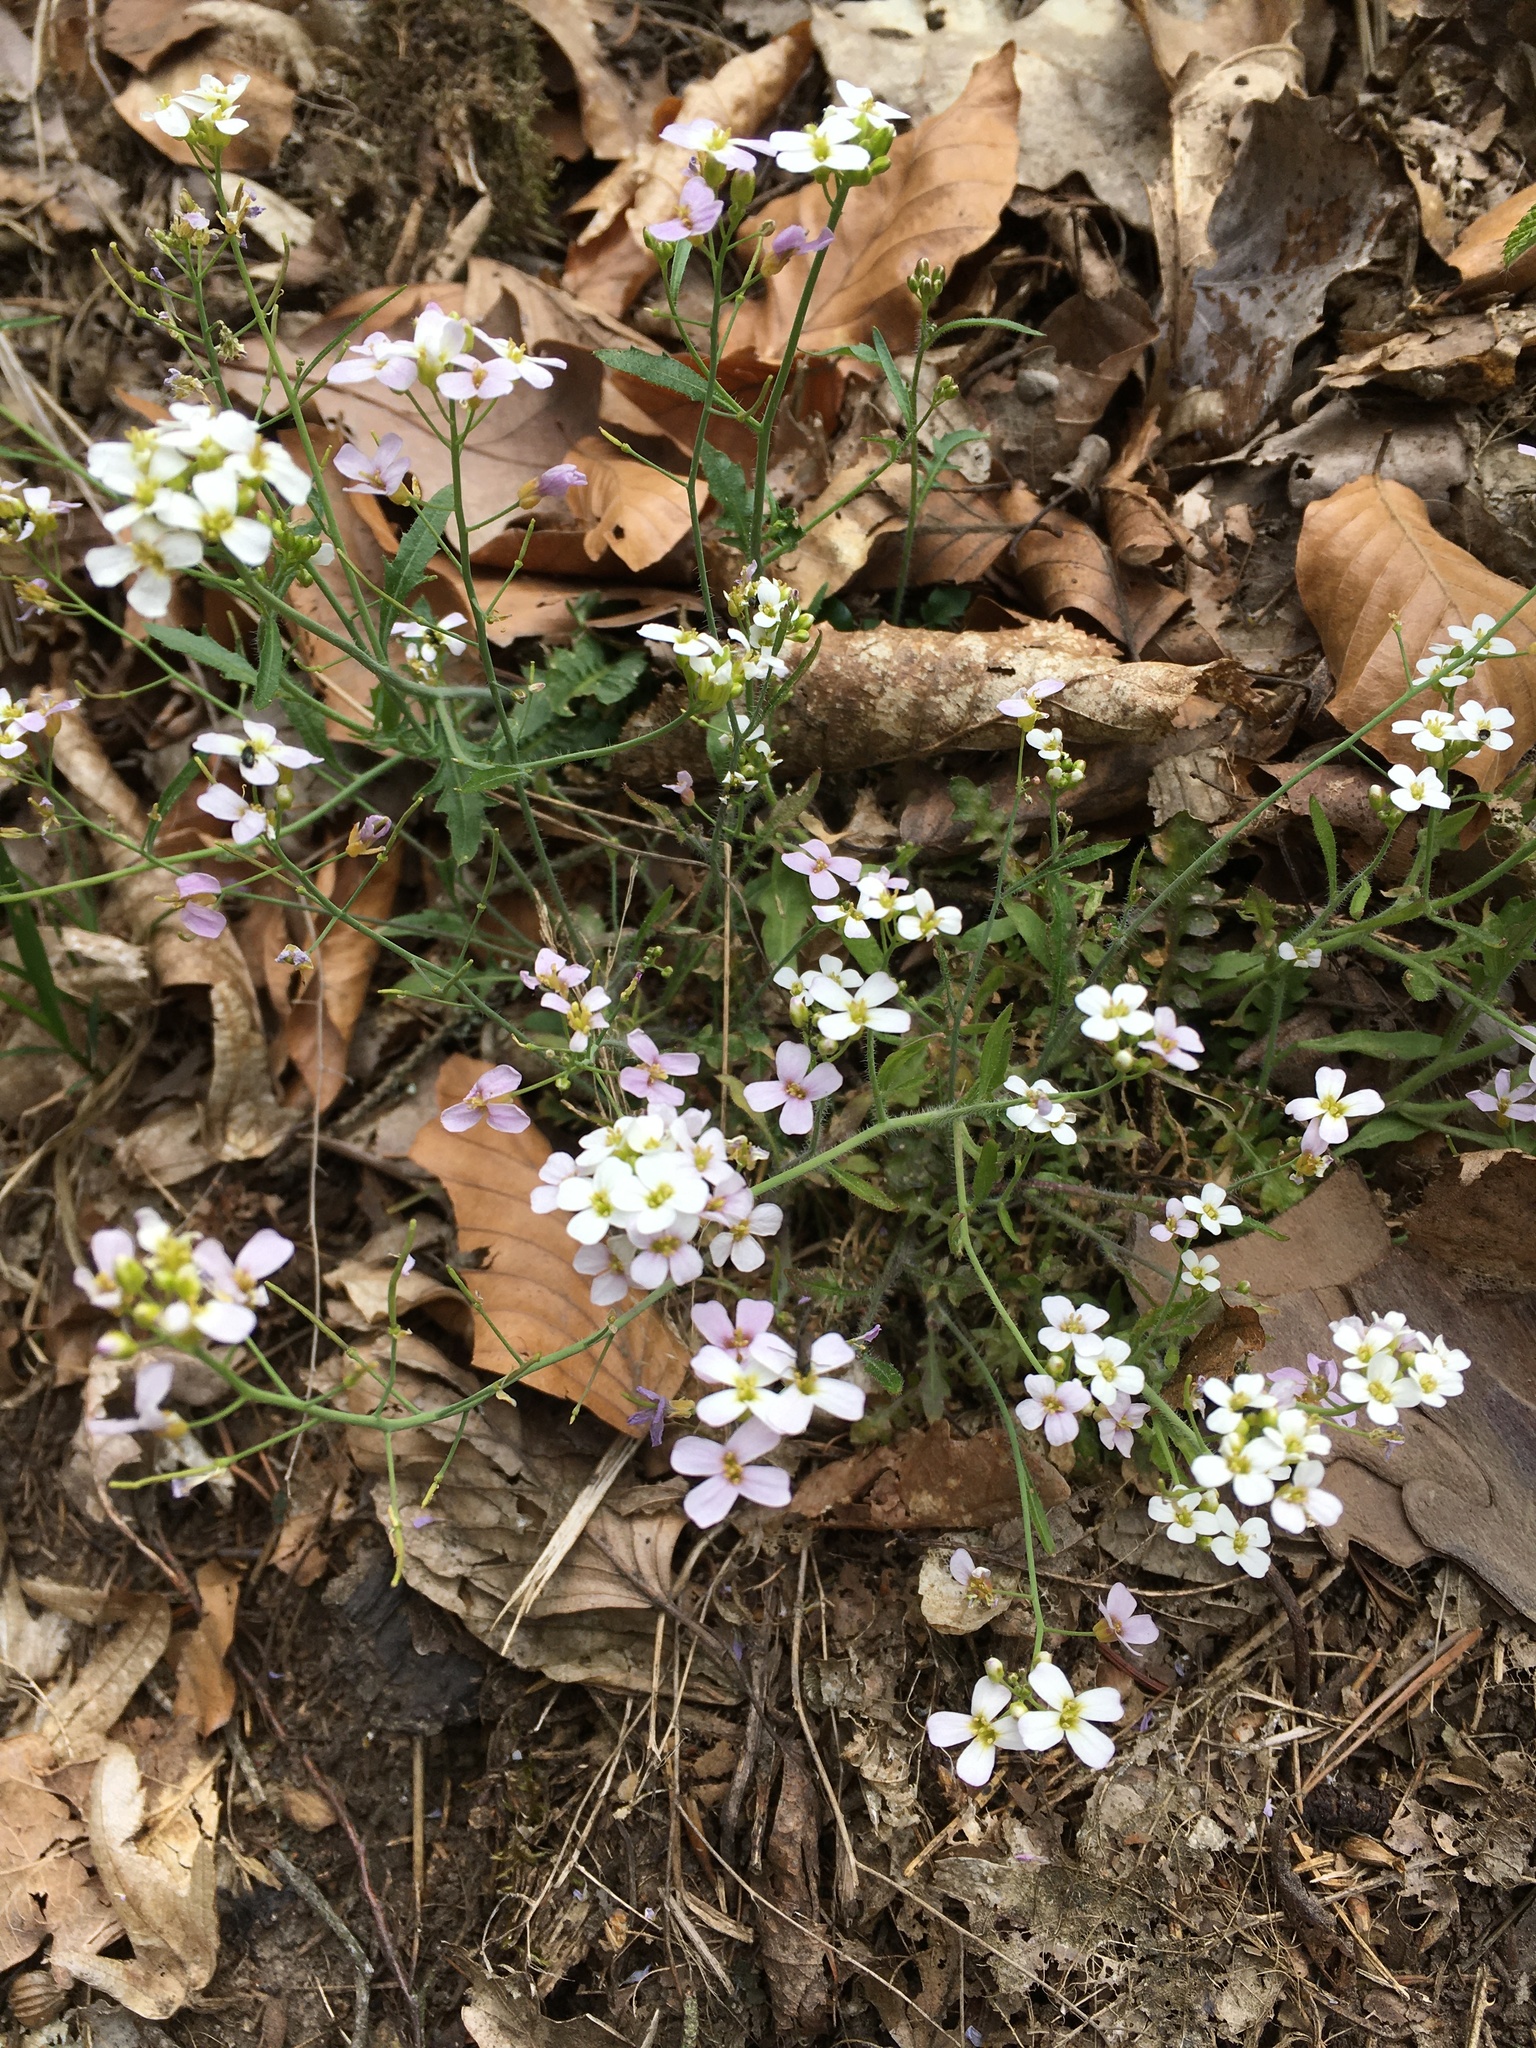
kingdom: Plantae
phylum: Tracheophyta
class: Magnoliopsida
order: Brassicales
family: Brassicaceae
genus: Arabidopsis
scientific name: Arabidopsis arenosa
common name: Sand rock-cress
